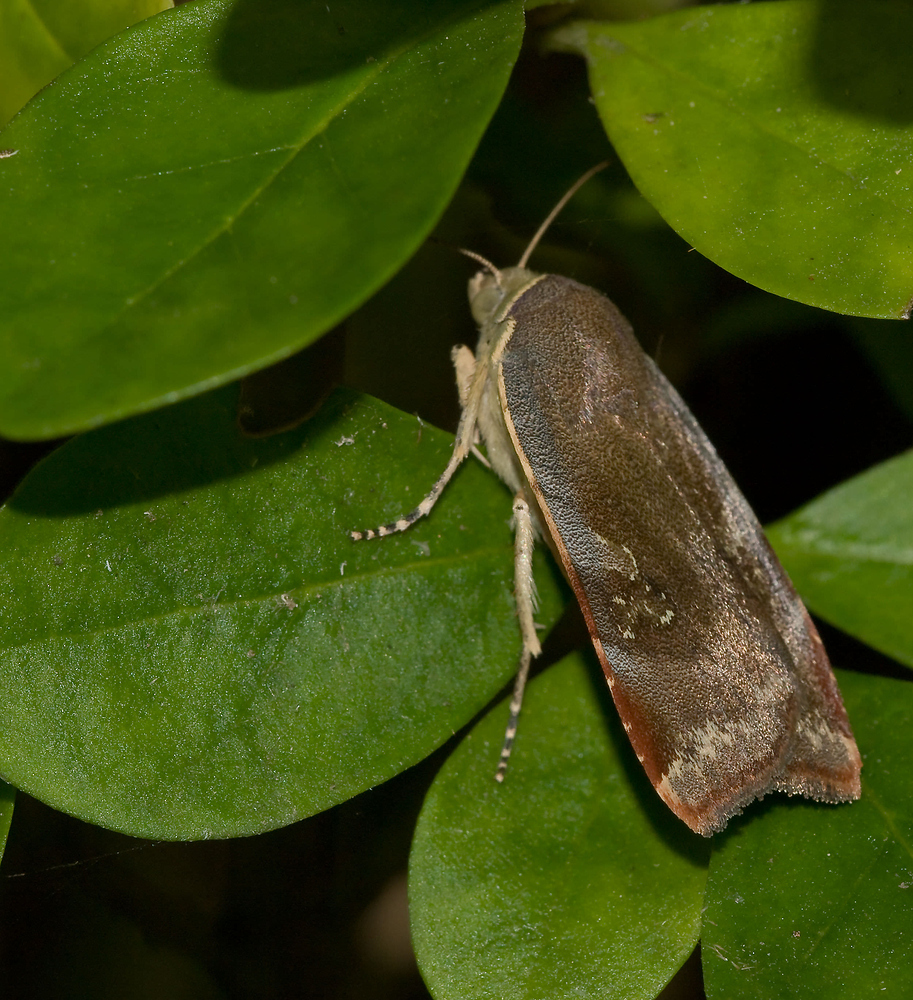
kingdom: Animalia
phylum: Arthropoda
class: Insecta
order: Lepidoptera
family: Noctuidae
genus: Noctua
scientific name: Noctua janthe
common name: Lesser broad-bordered yellow underwing
